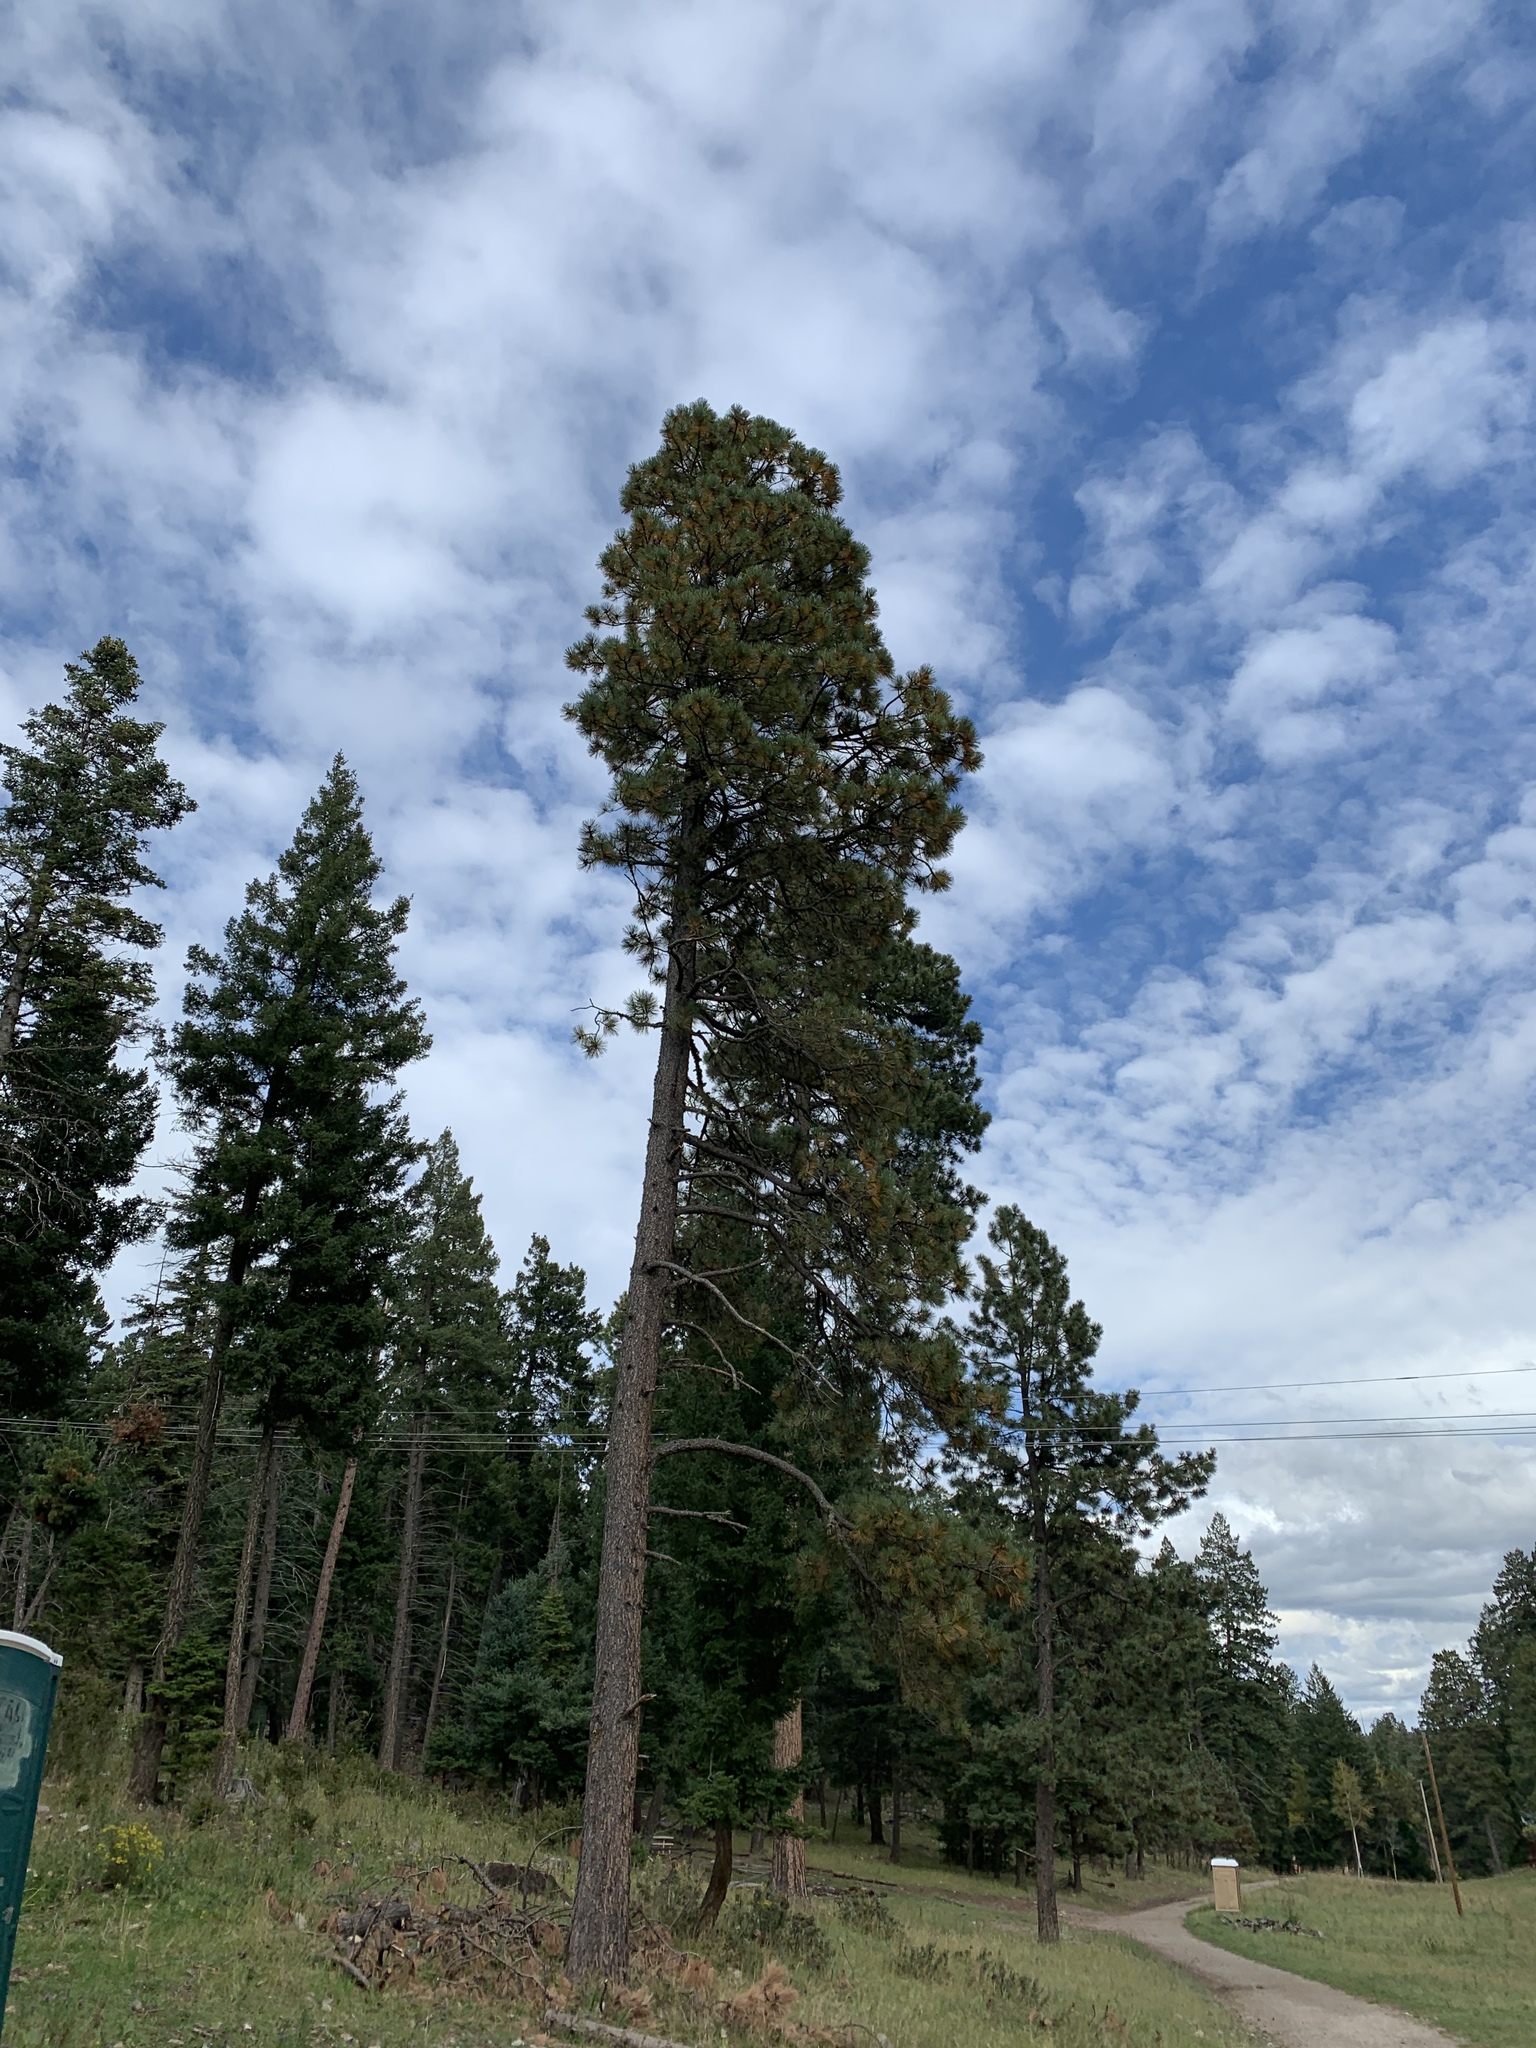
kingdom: Plantae
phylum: Tracheophyta
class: Pinopsida
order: Pinales
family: Pinaceae
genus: Pinus
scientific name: Pinus ponderosa
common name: Western yellow-pine
